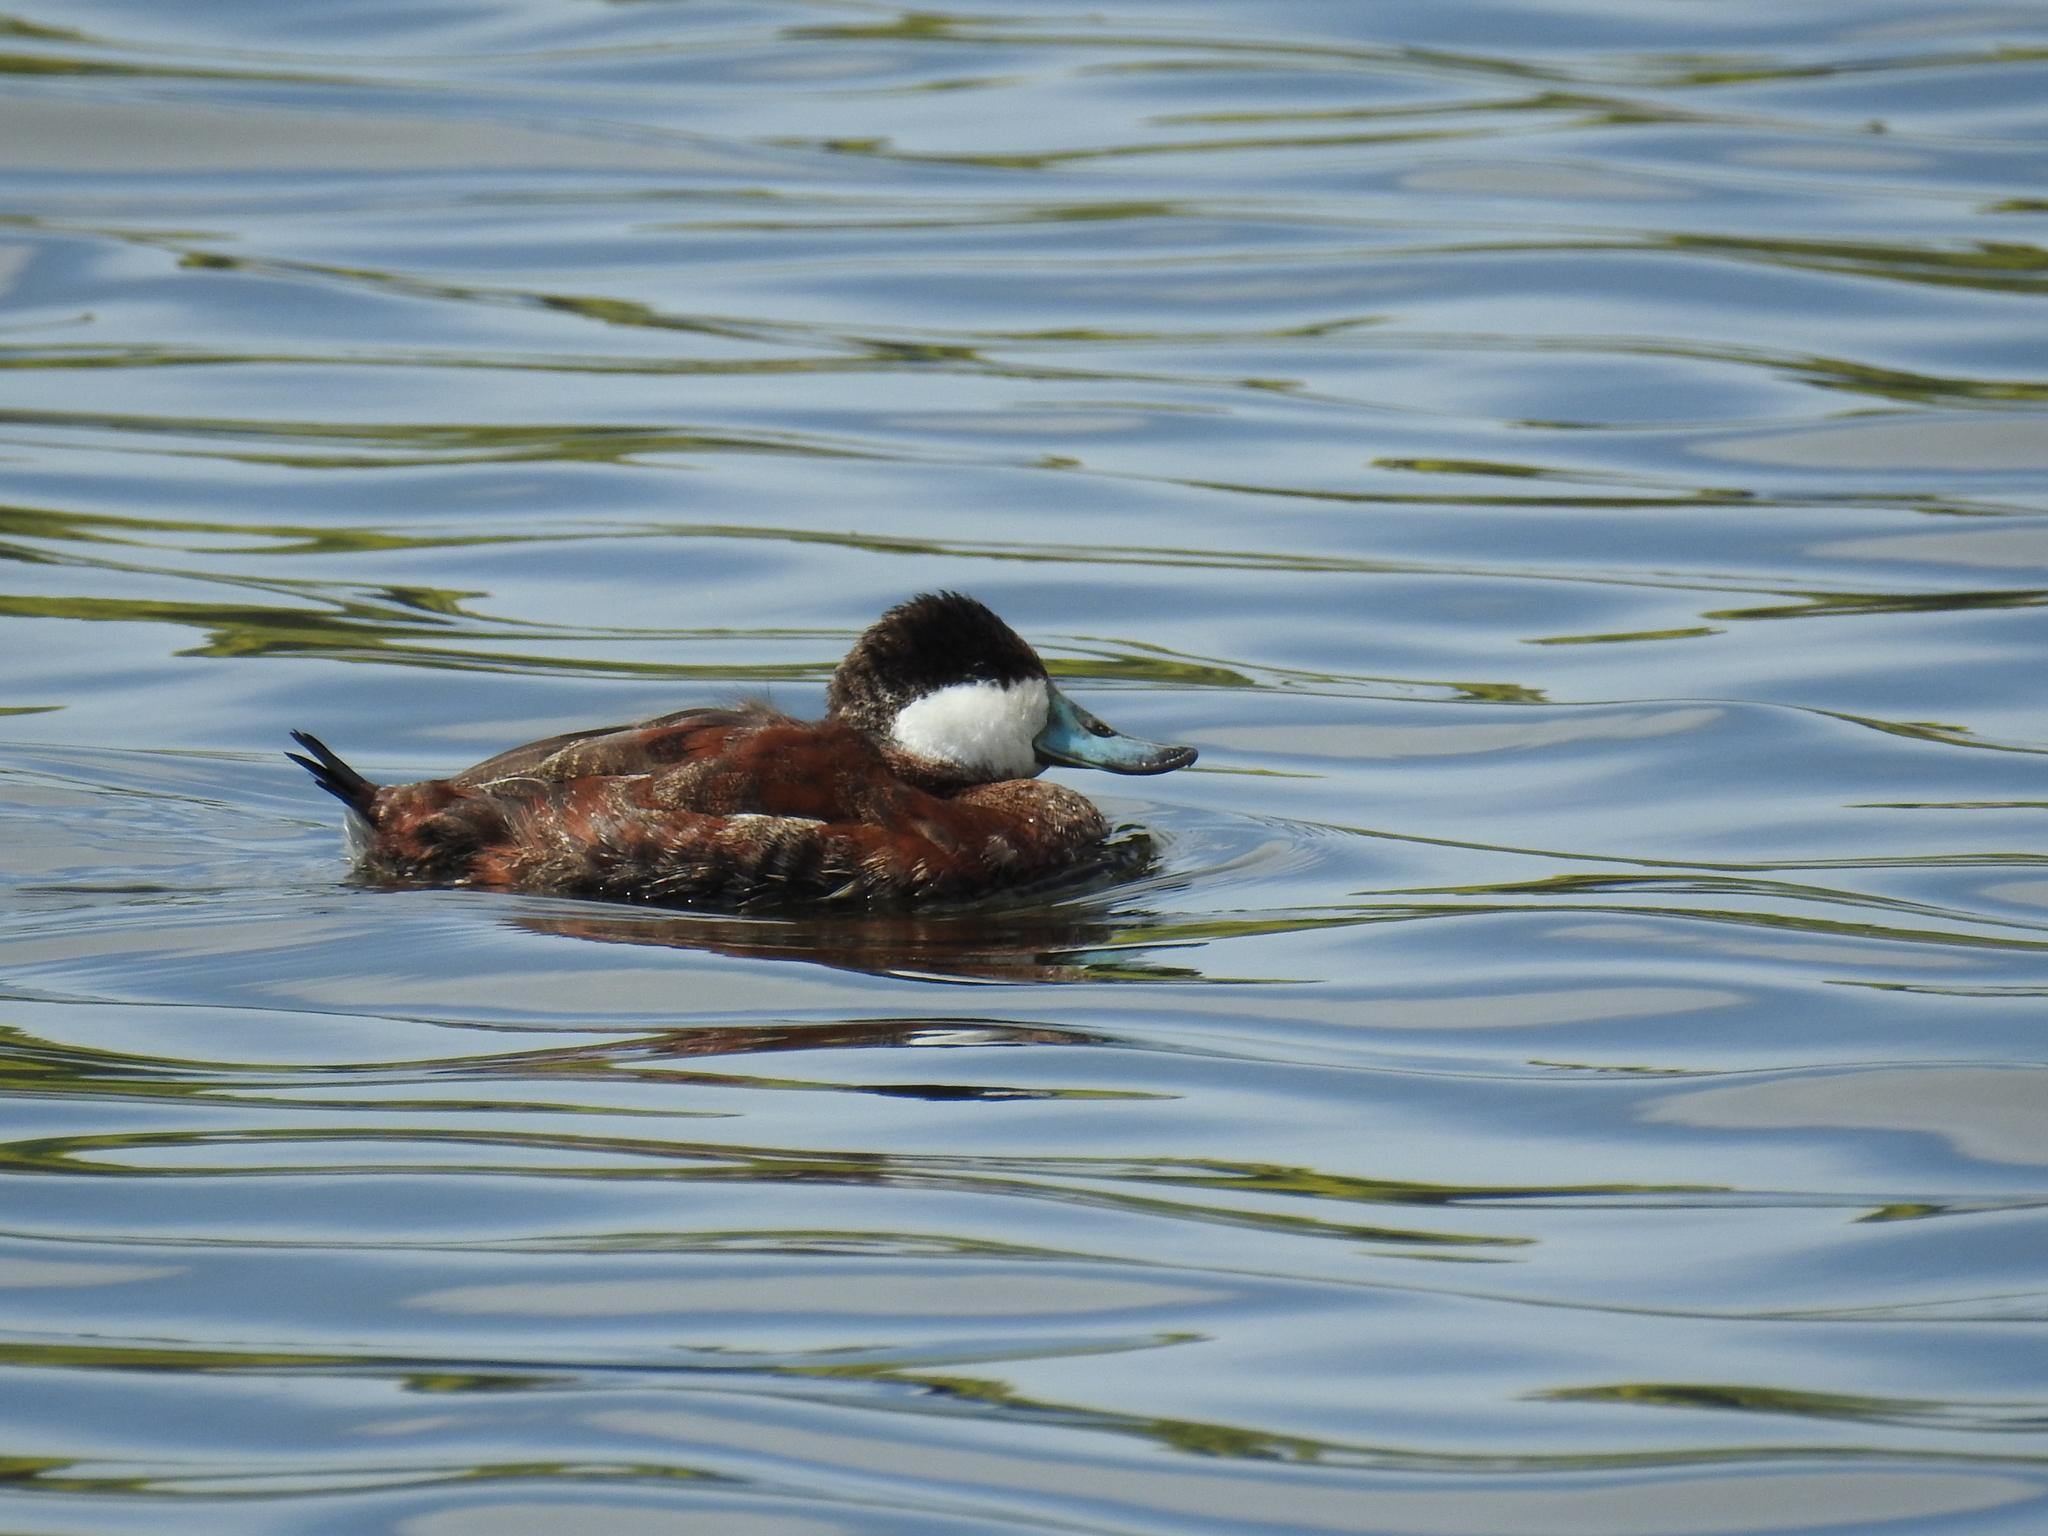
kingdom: Animalia
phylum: Chordata
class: Aves
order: Anseriformes
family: Anatidae
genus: Oxyura
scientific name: Oxyura jamaicensis
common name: Ruddy duck
